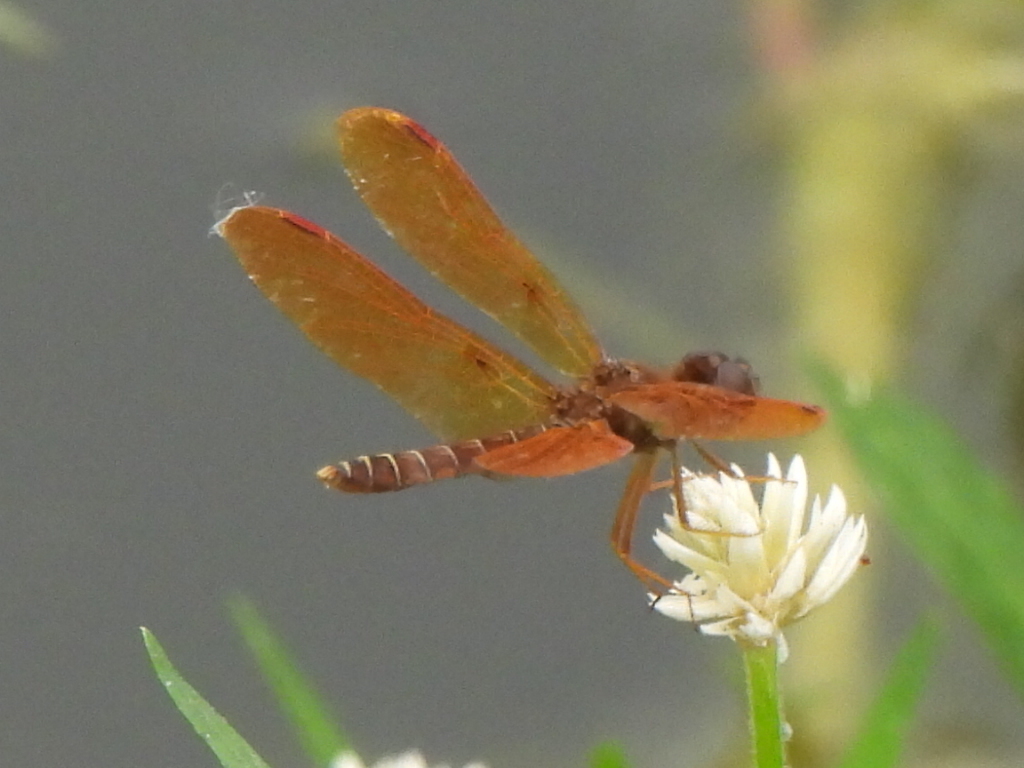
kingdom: Animalia
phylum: Arthropoda
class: Insecta
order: Odonata
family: Libellulidae
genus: Perithemis
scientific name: Perithemis tenera
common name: Eastern amberwing
